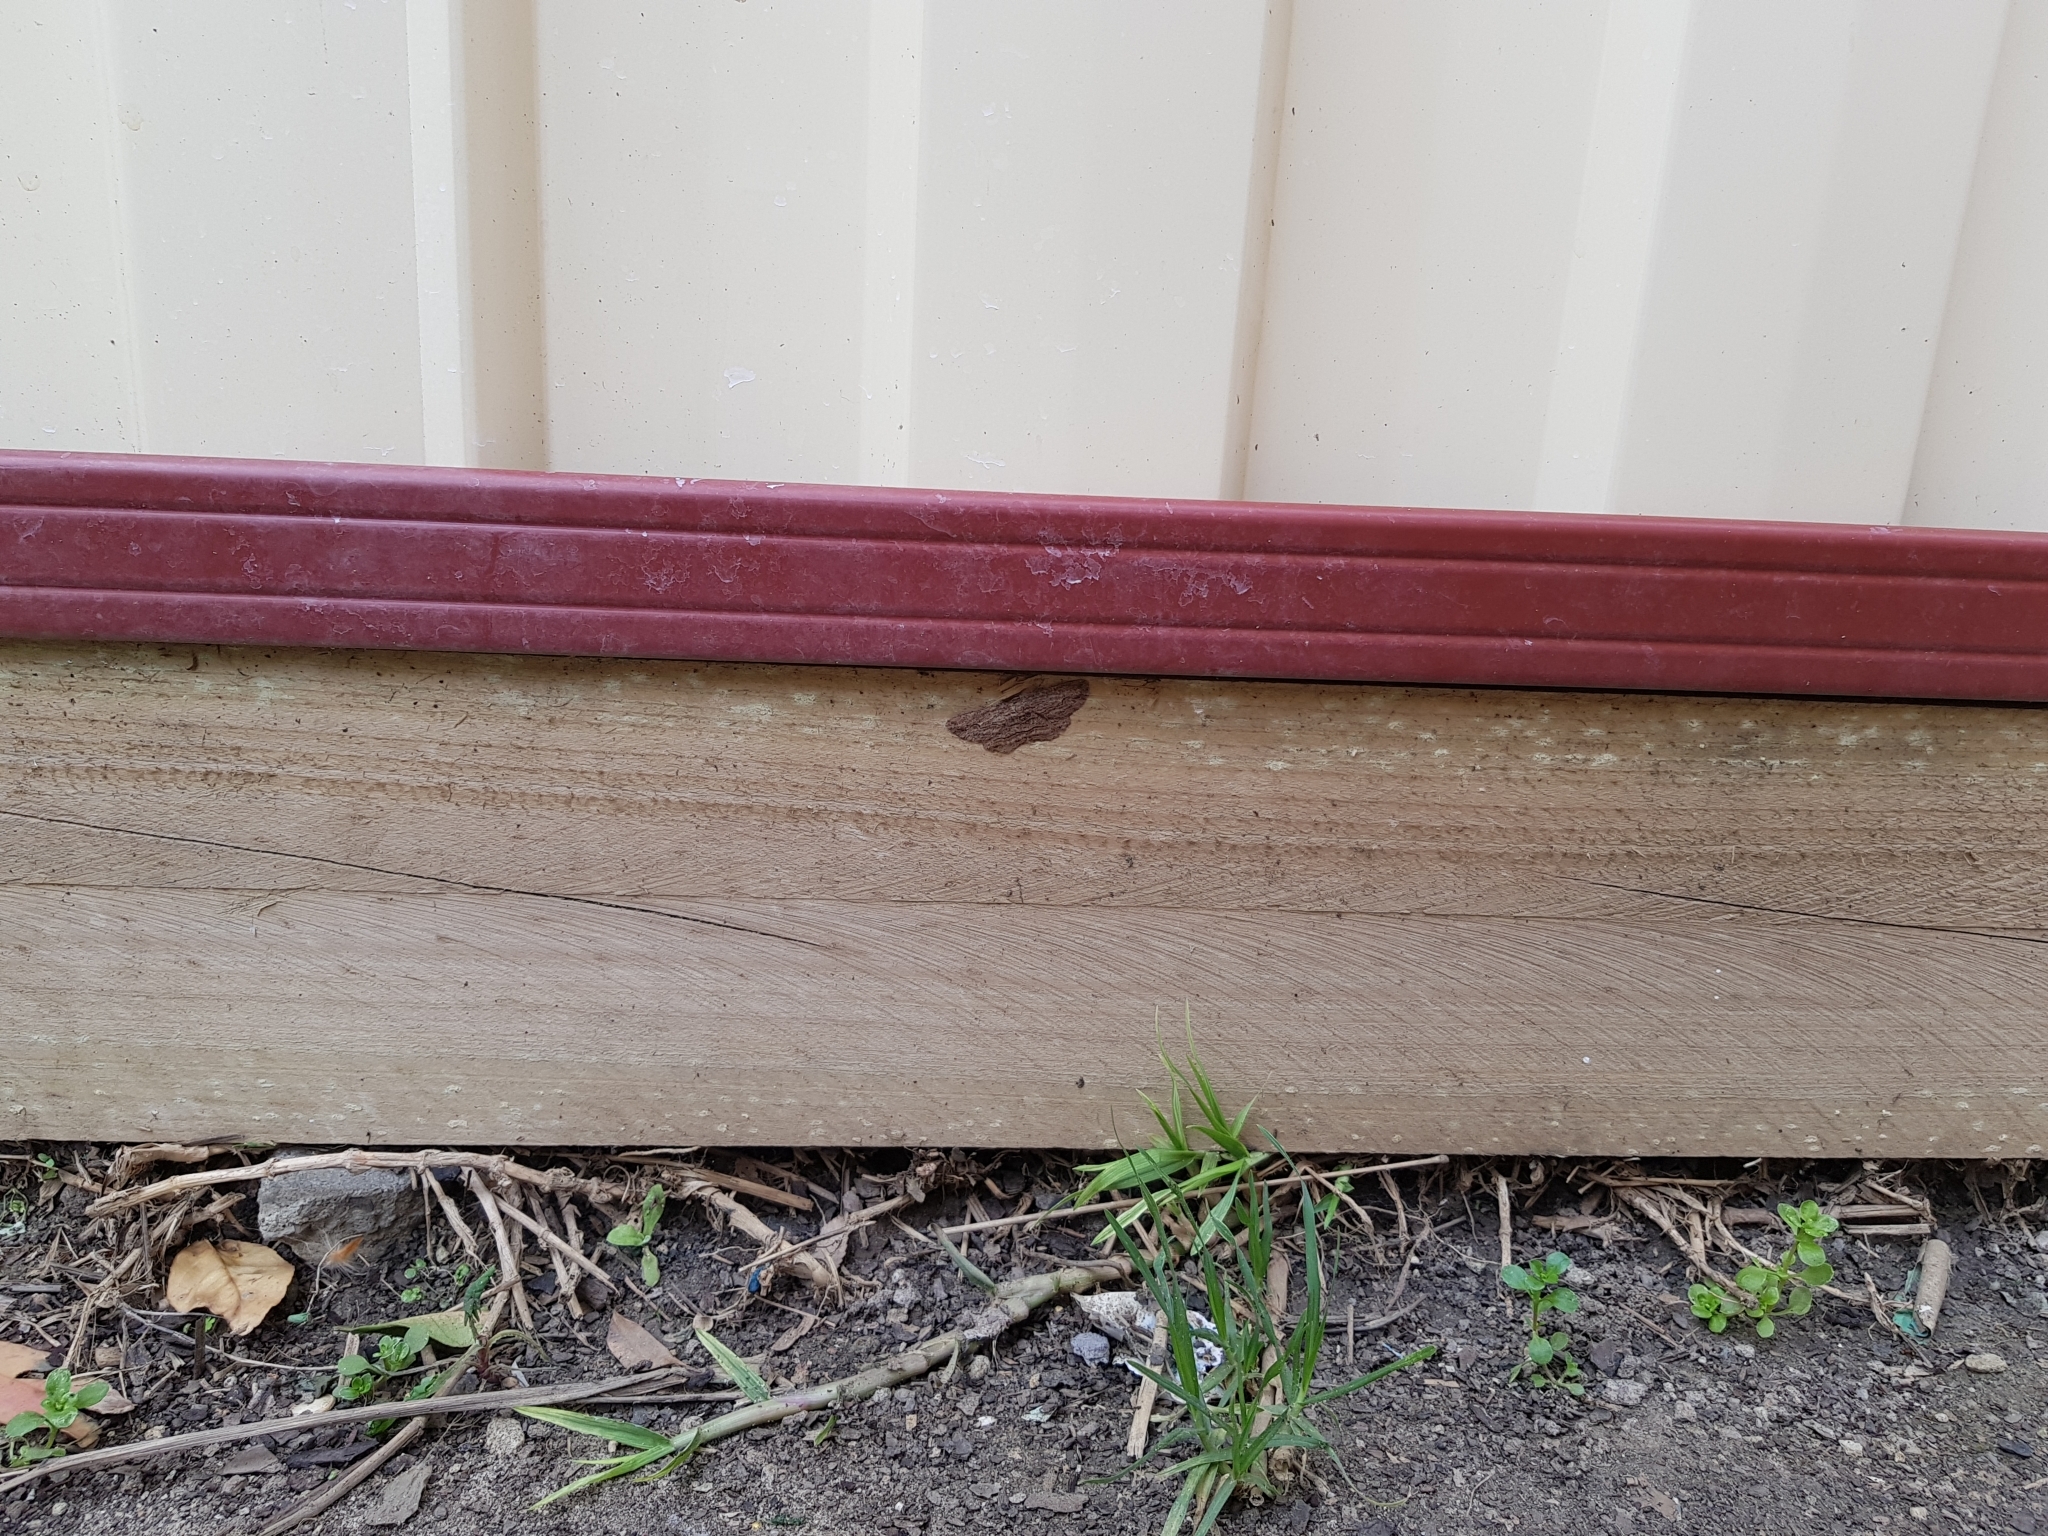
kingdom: Animalia
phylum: Arthropoda
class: Insecta
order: Lepidoptera
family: Geometridae
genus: Ectropis
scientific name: Ectropis excursaria
